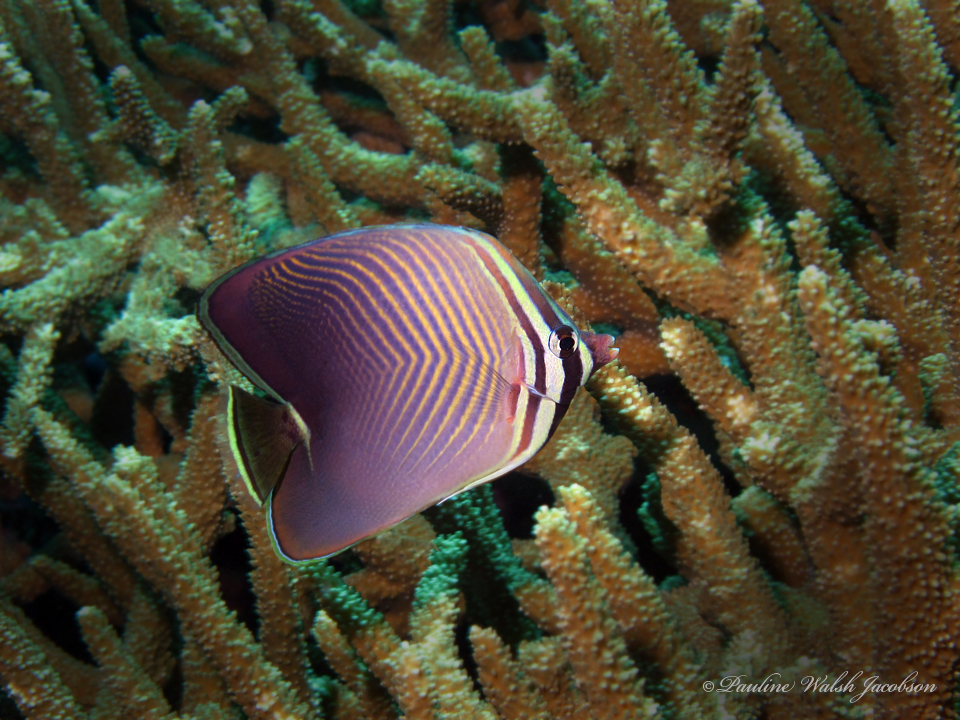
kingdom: Animalia
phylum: Chordata
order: Perciformes
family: Chaetodontidae
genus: Chaetodon
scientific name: Chaetodon baronessa
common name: Triangular butterflyfish
